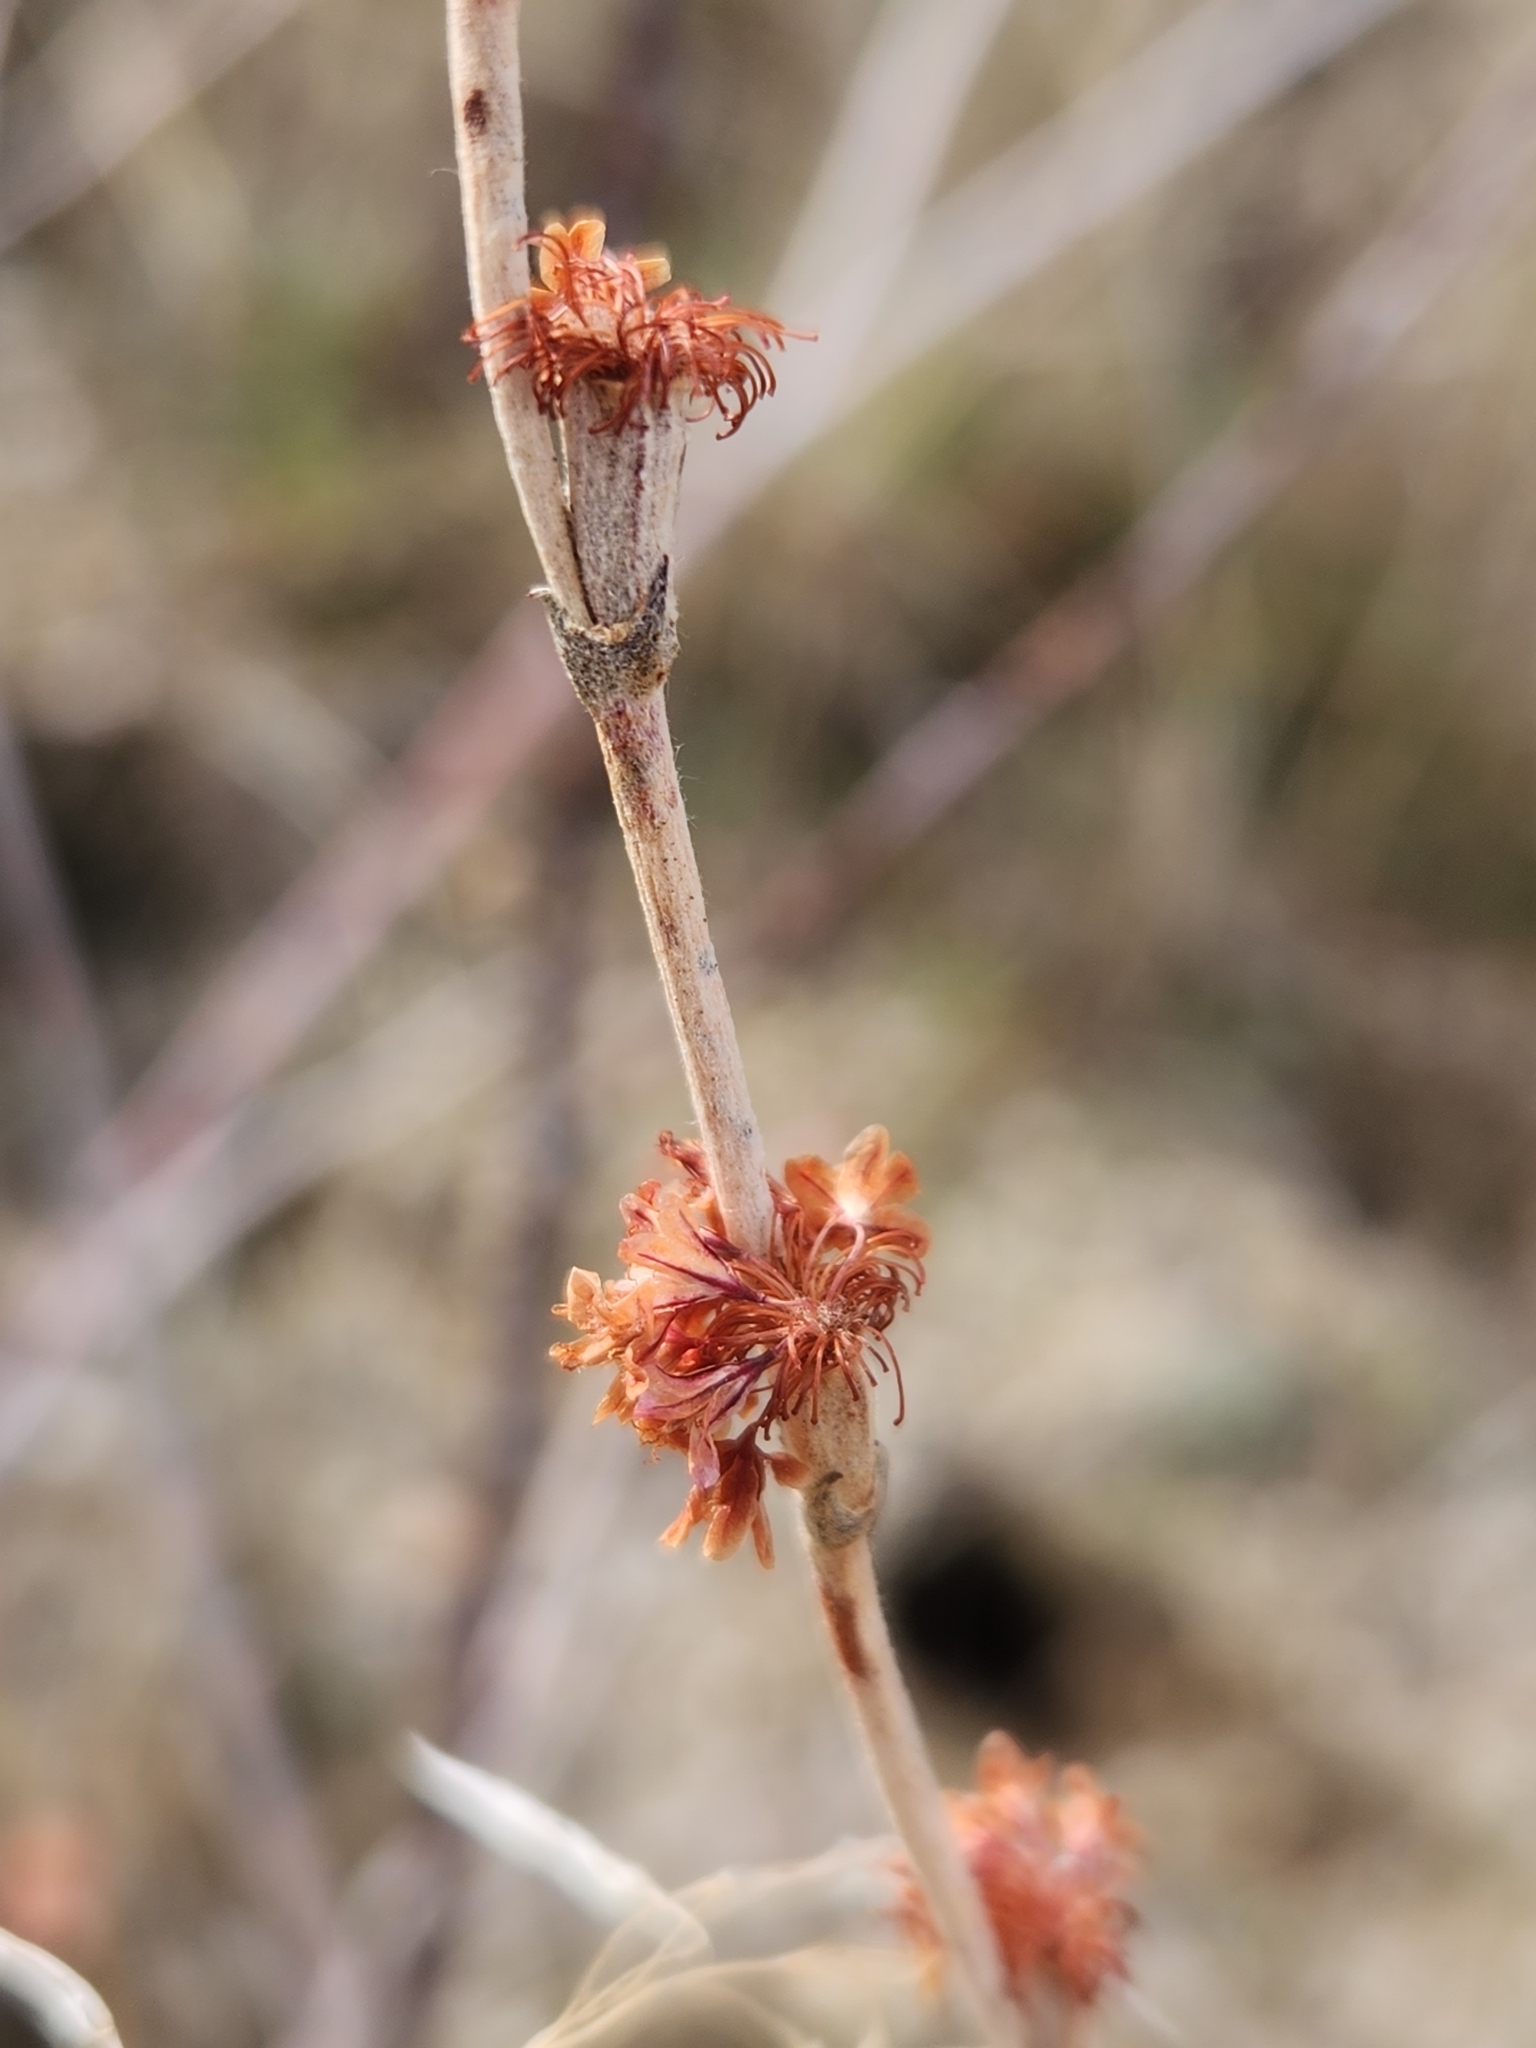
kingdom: Plantae
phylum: Tracheophyta
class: Magnoliopsida
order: Caryophyllales
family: Polygonaceae
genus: Eriogonum
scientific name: Eriogonum elongatum
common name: Long-stem wild buckwheat
